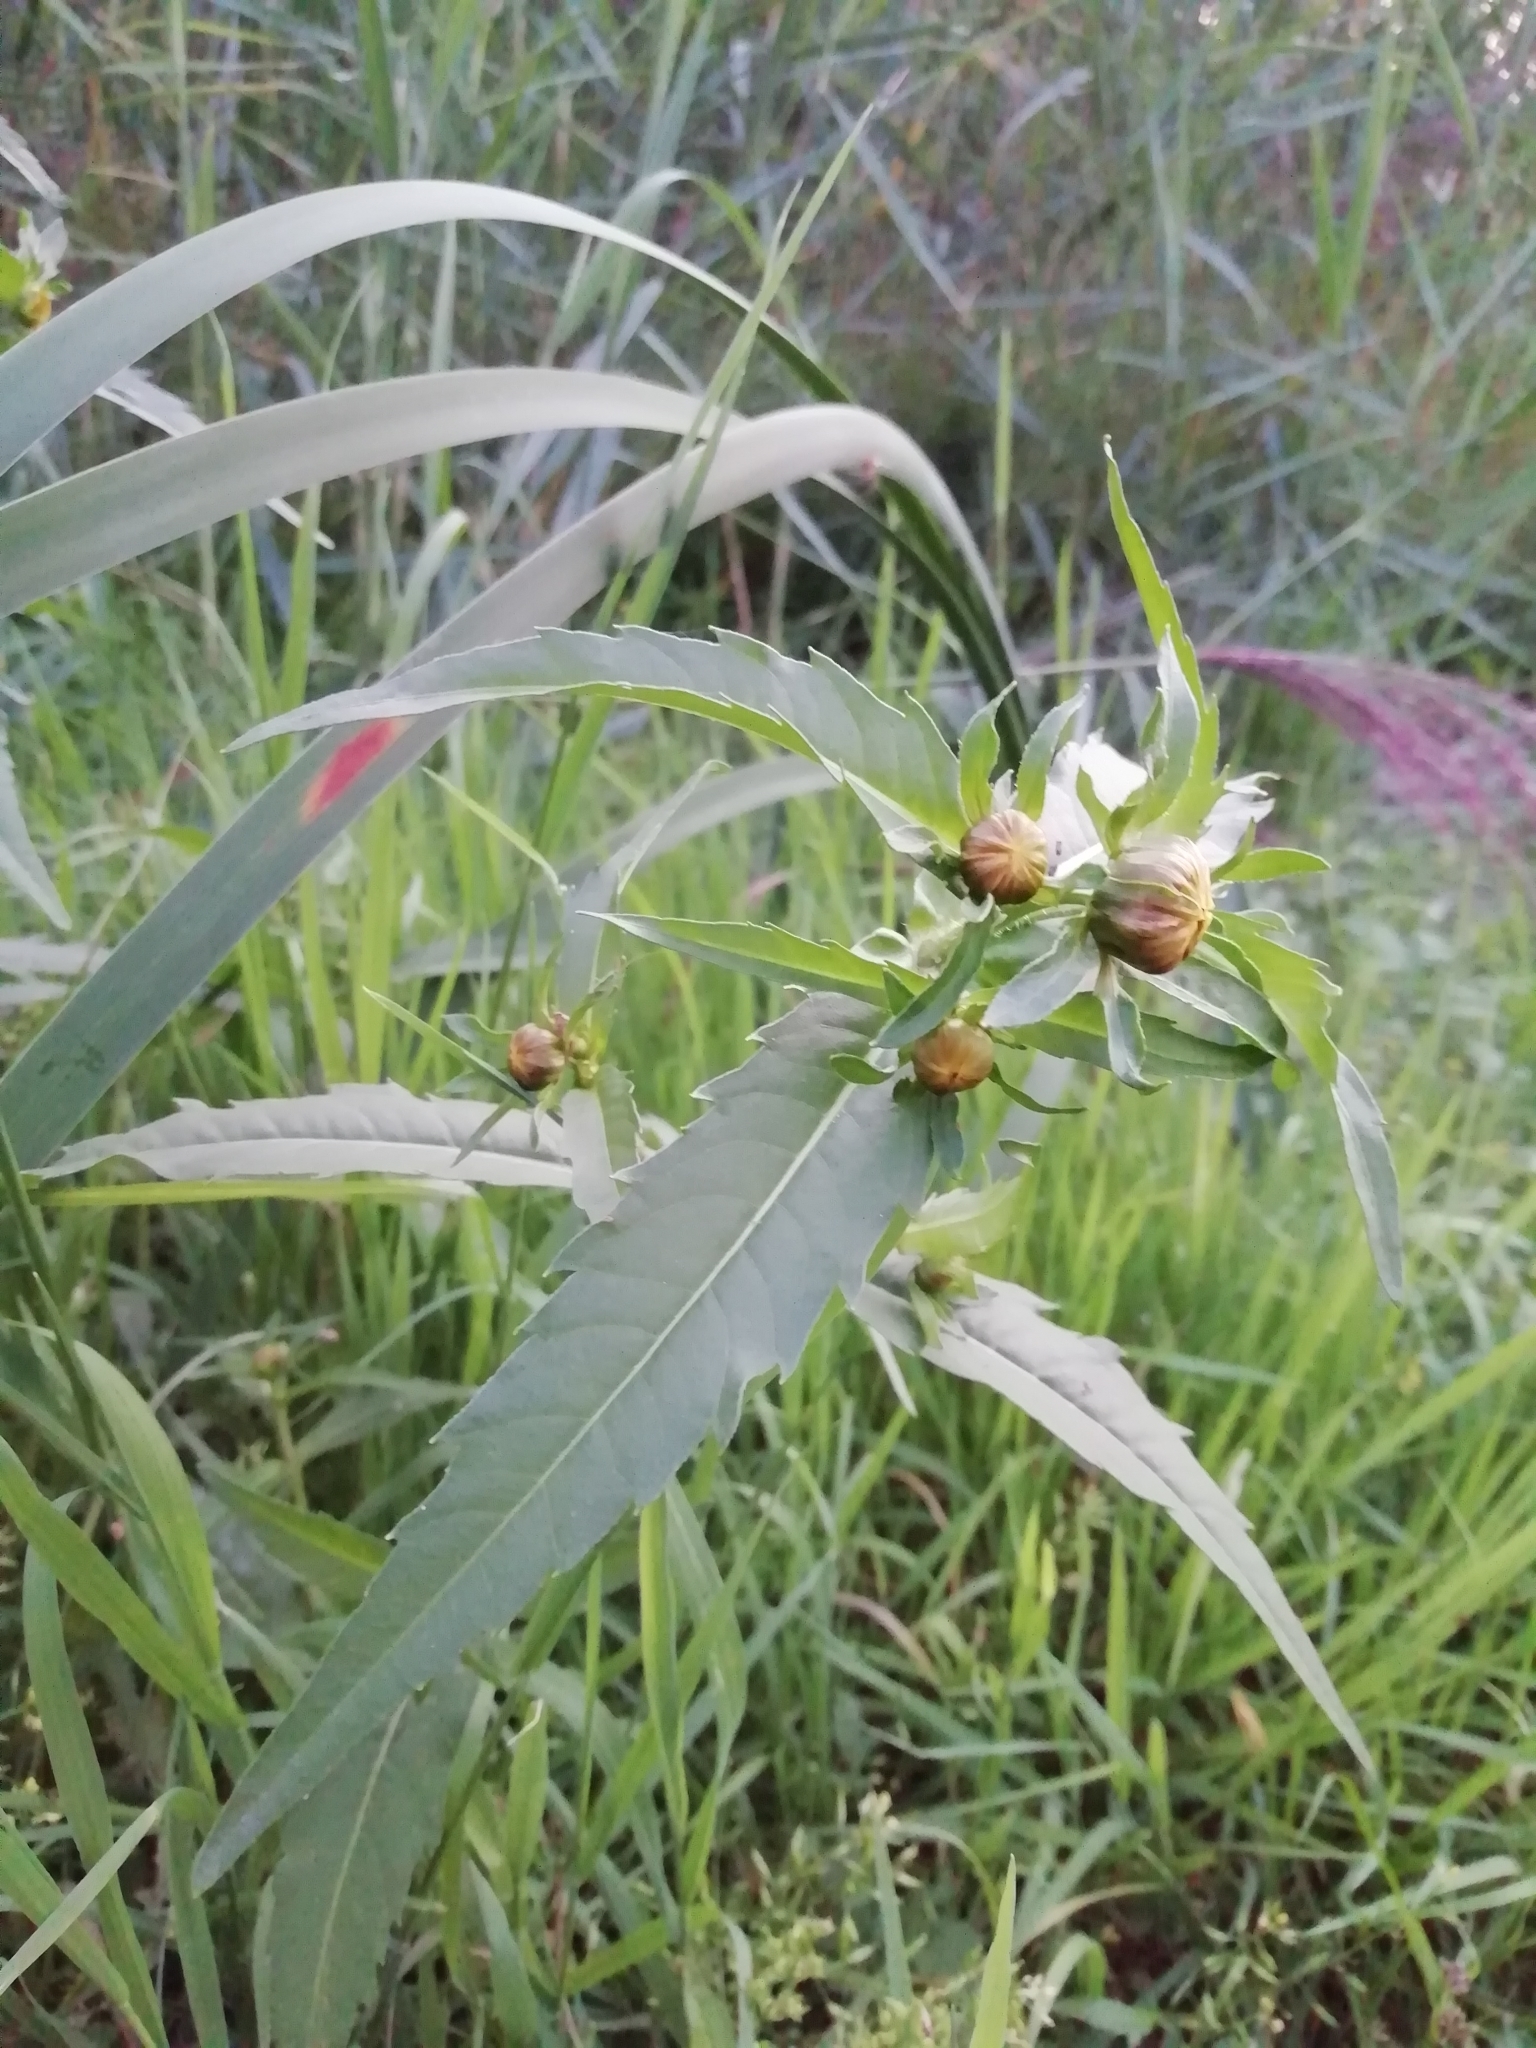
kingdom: Plantae
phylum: Tracheophyta
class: Magnoliopsida
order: Asterales
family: Asteraceae
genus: Bidens
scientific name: Bidens cernua
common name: Nodding bur-marigold
